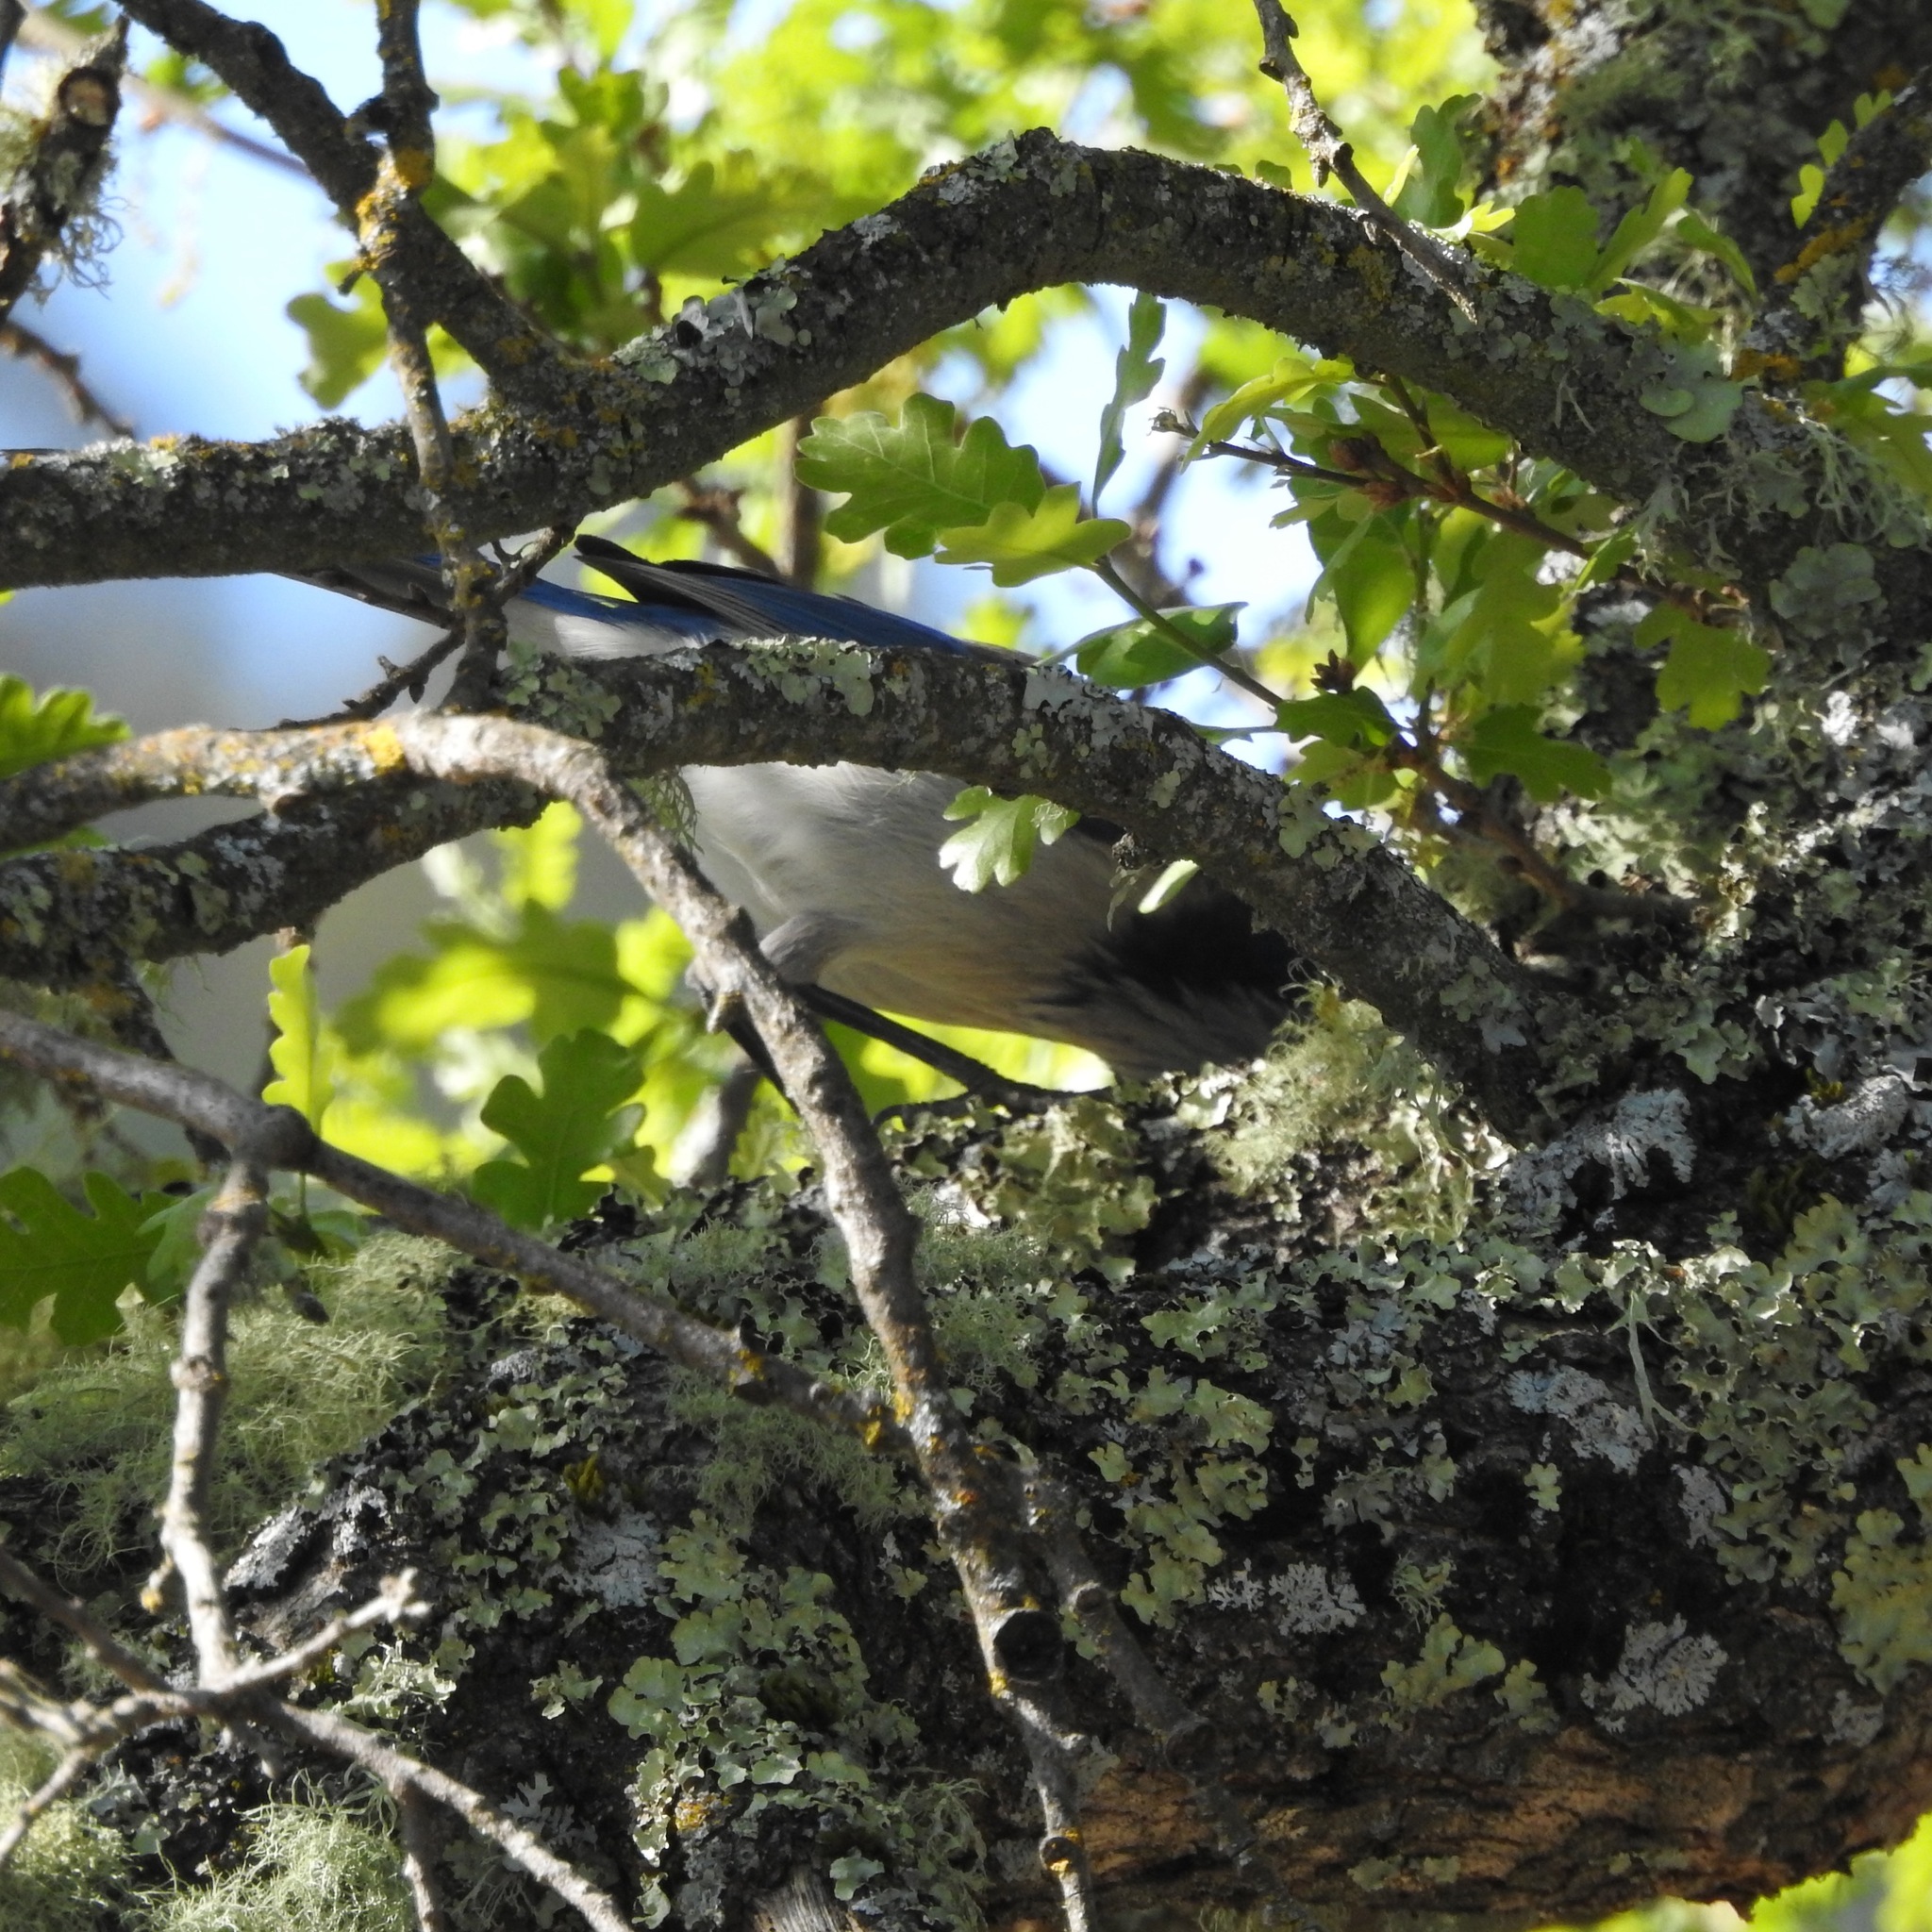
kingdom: Animalia
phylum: Chordata
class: Aves
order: Passeriformes
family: Corvidae
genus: Aphelocoma
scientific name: Aphelocoma californica
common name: California scrub-jay
